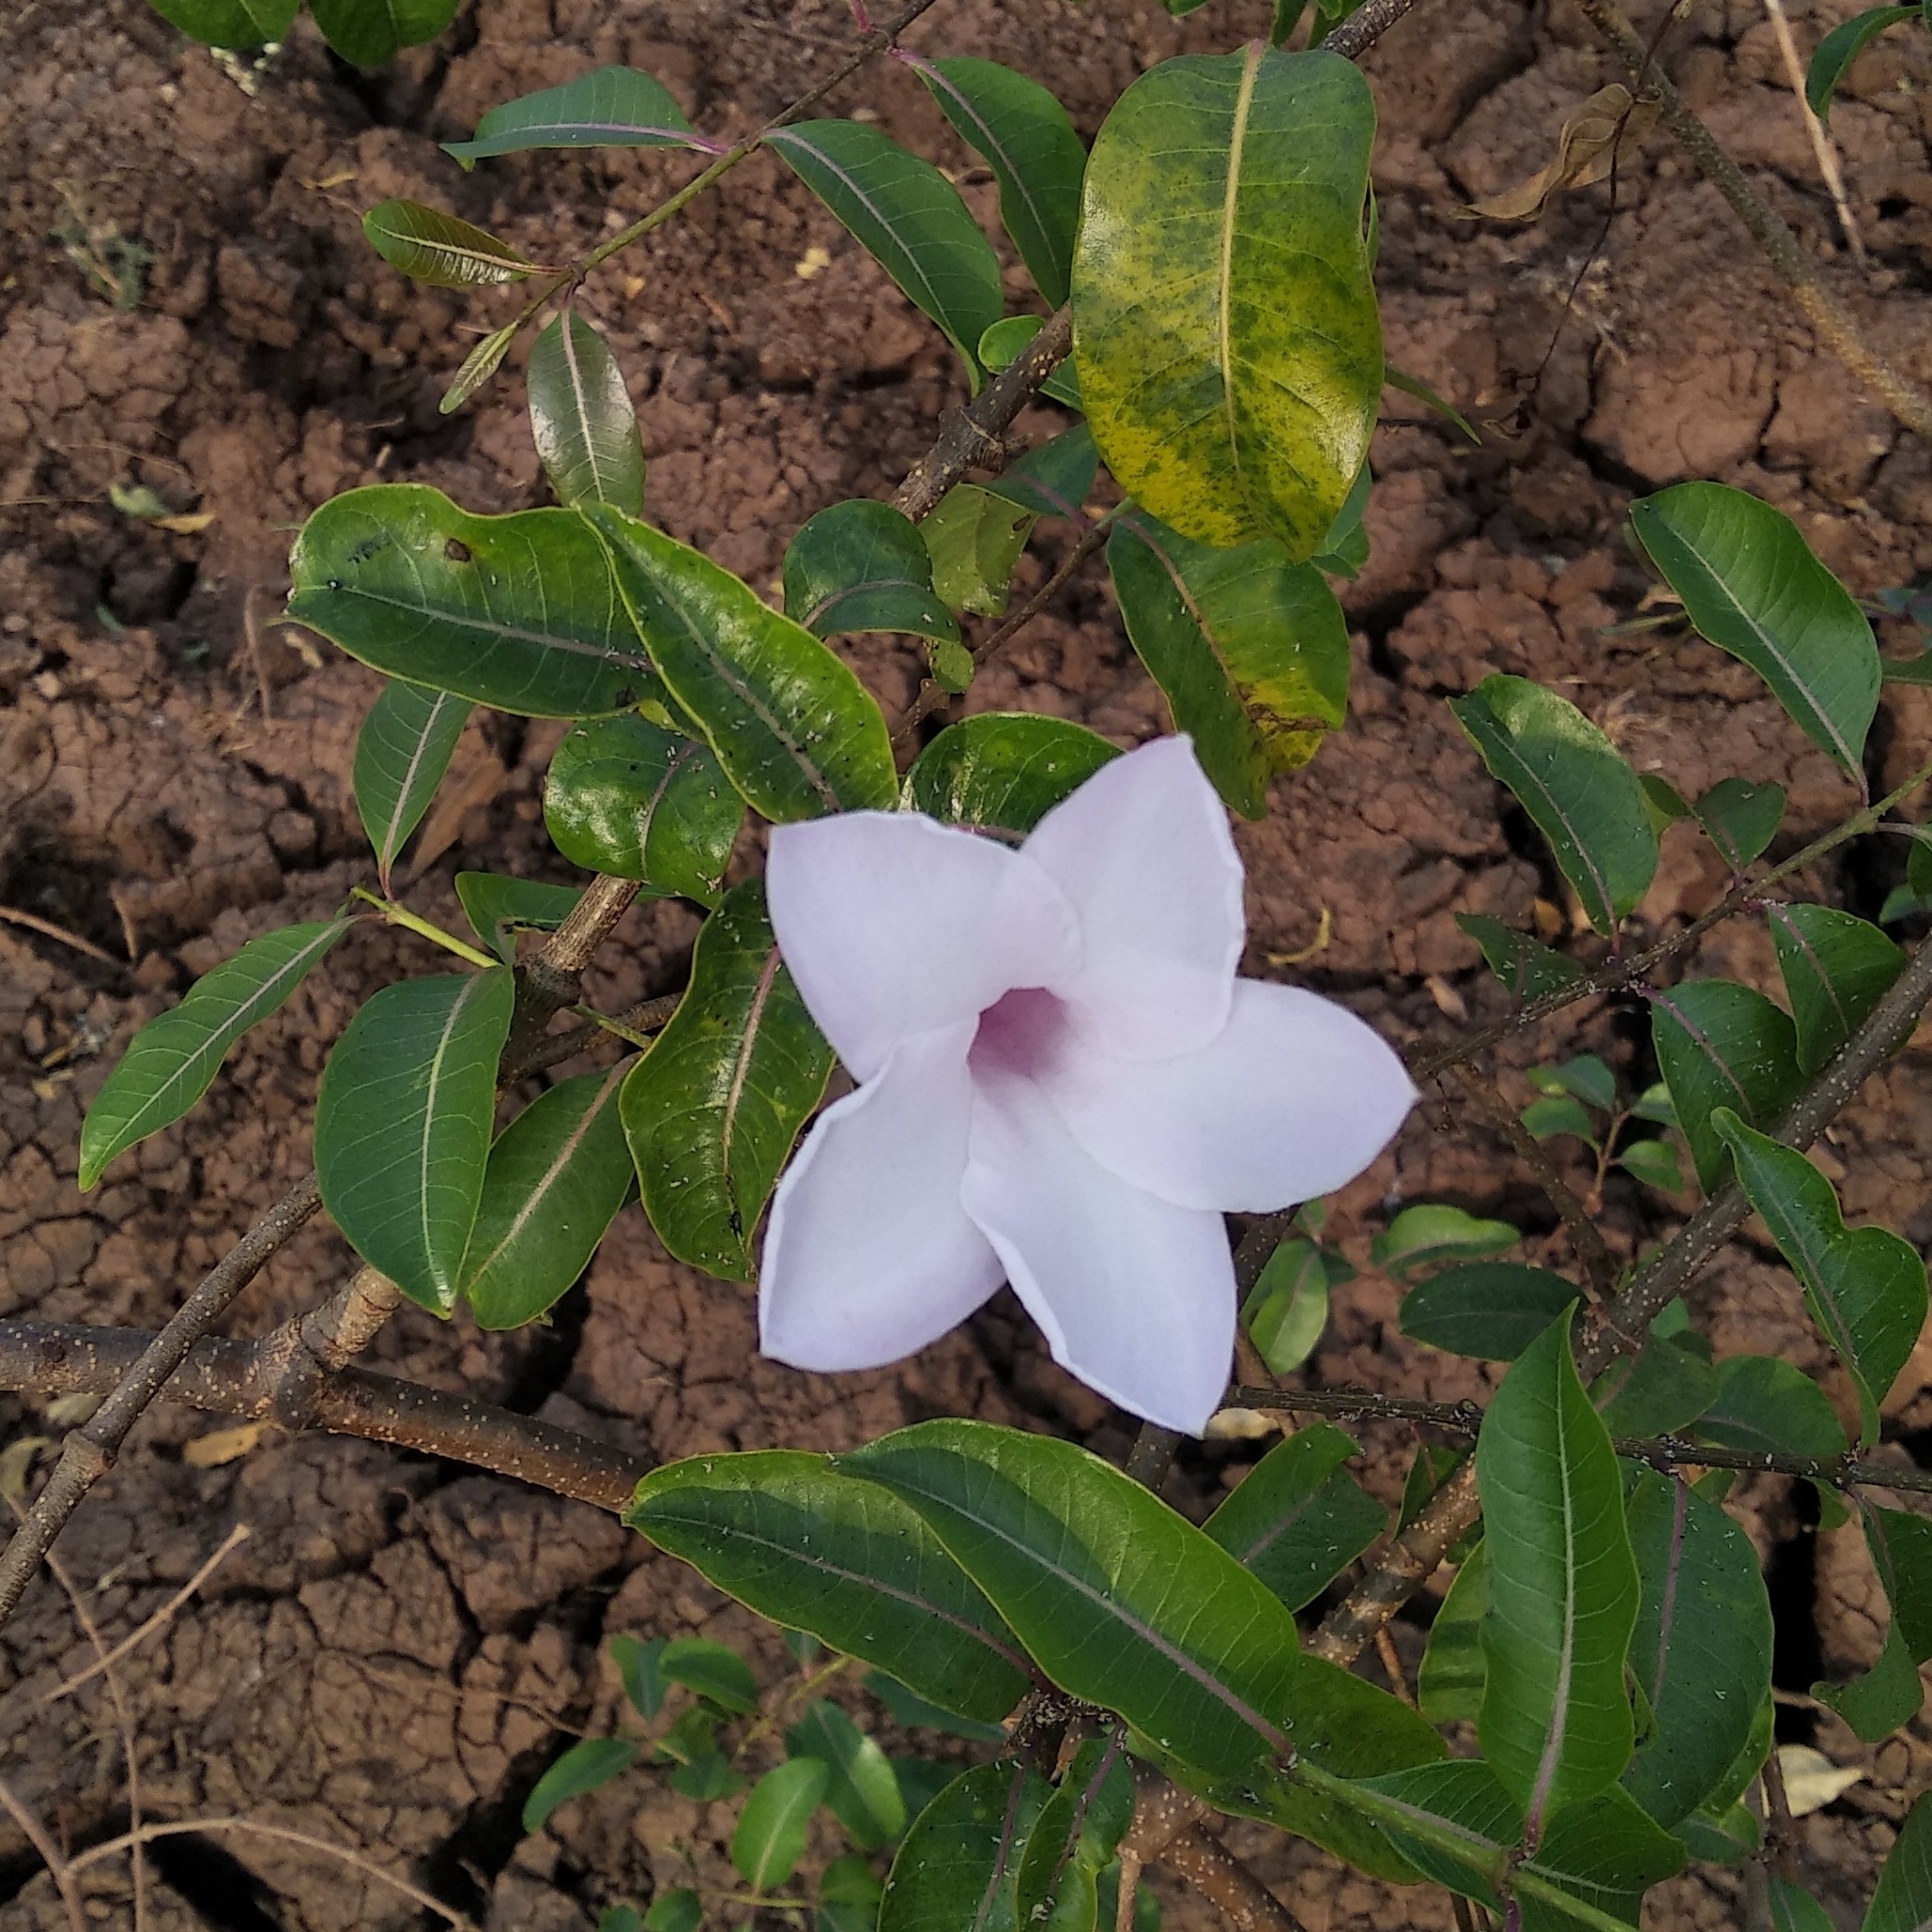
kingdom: Plantae
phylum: Tracheophyta
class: Magnoliopsida
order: Gentianales
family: Apocynaceae
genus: Cryptostegia
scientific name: Cryptostegia grandiflora
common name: Palay rubbervine
